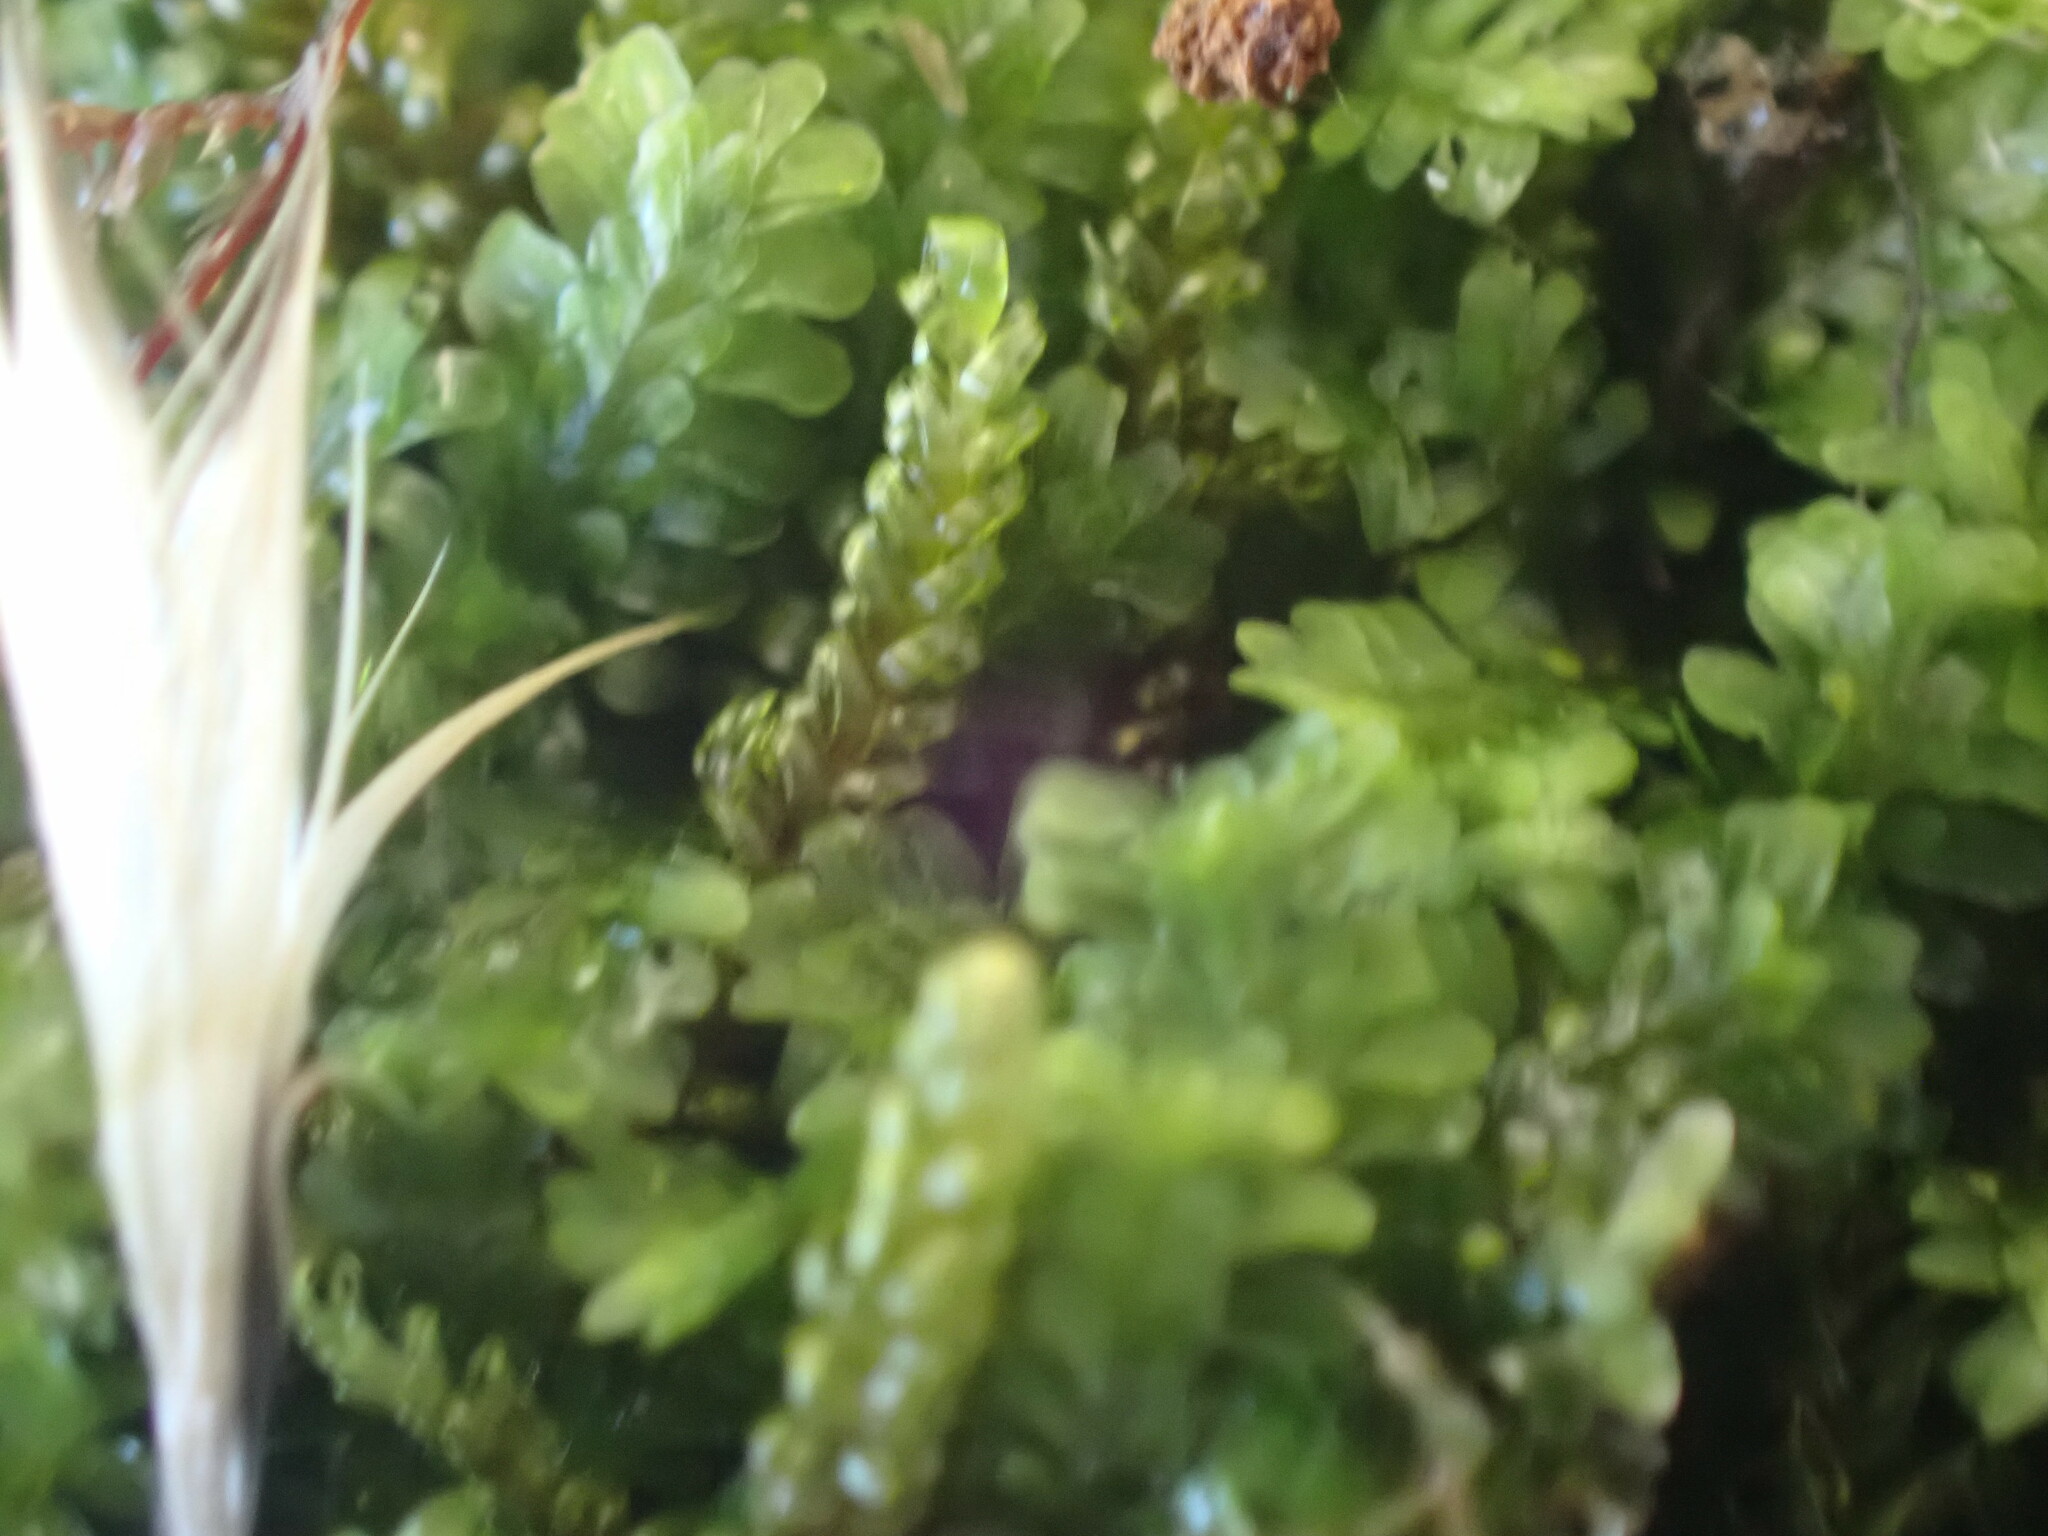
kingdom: Plantae
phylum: Marchantiophyta
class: Jungermanniopsida
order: Jungermanniales
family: Scapaniaceae
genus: Diplophyllum
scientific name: Diplophyllum albicans
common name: White earwort
